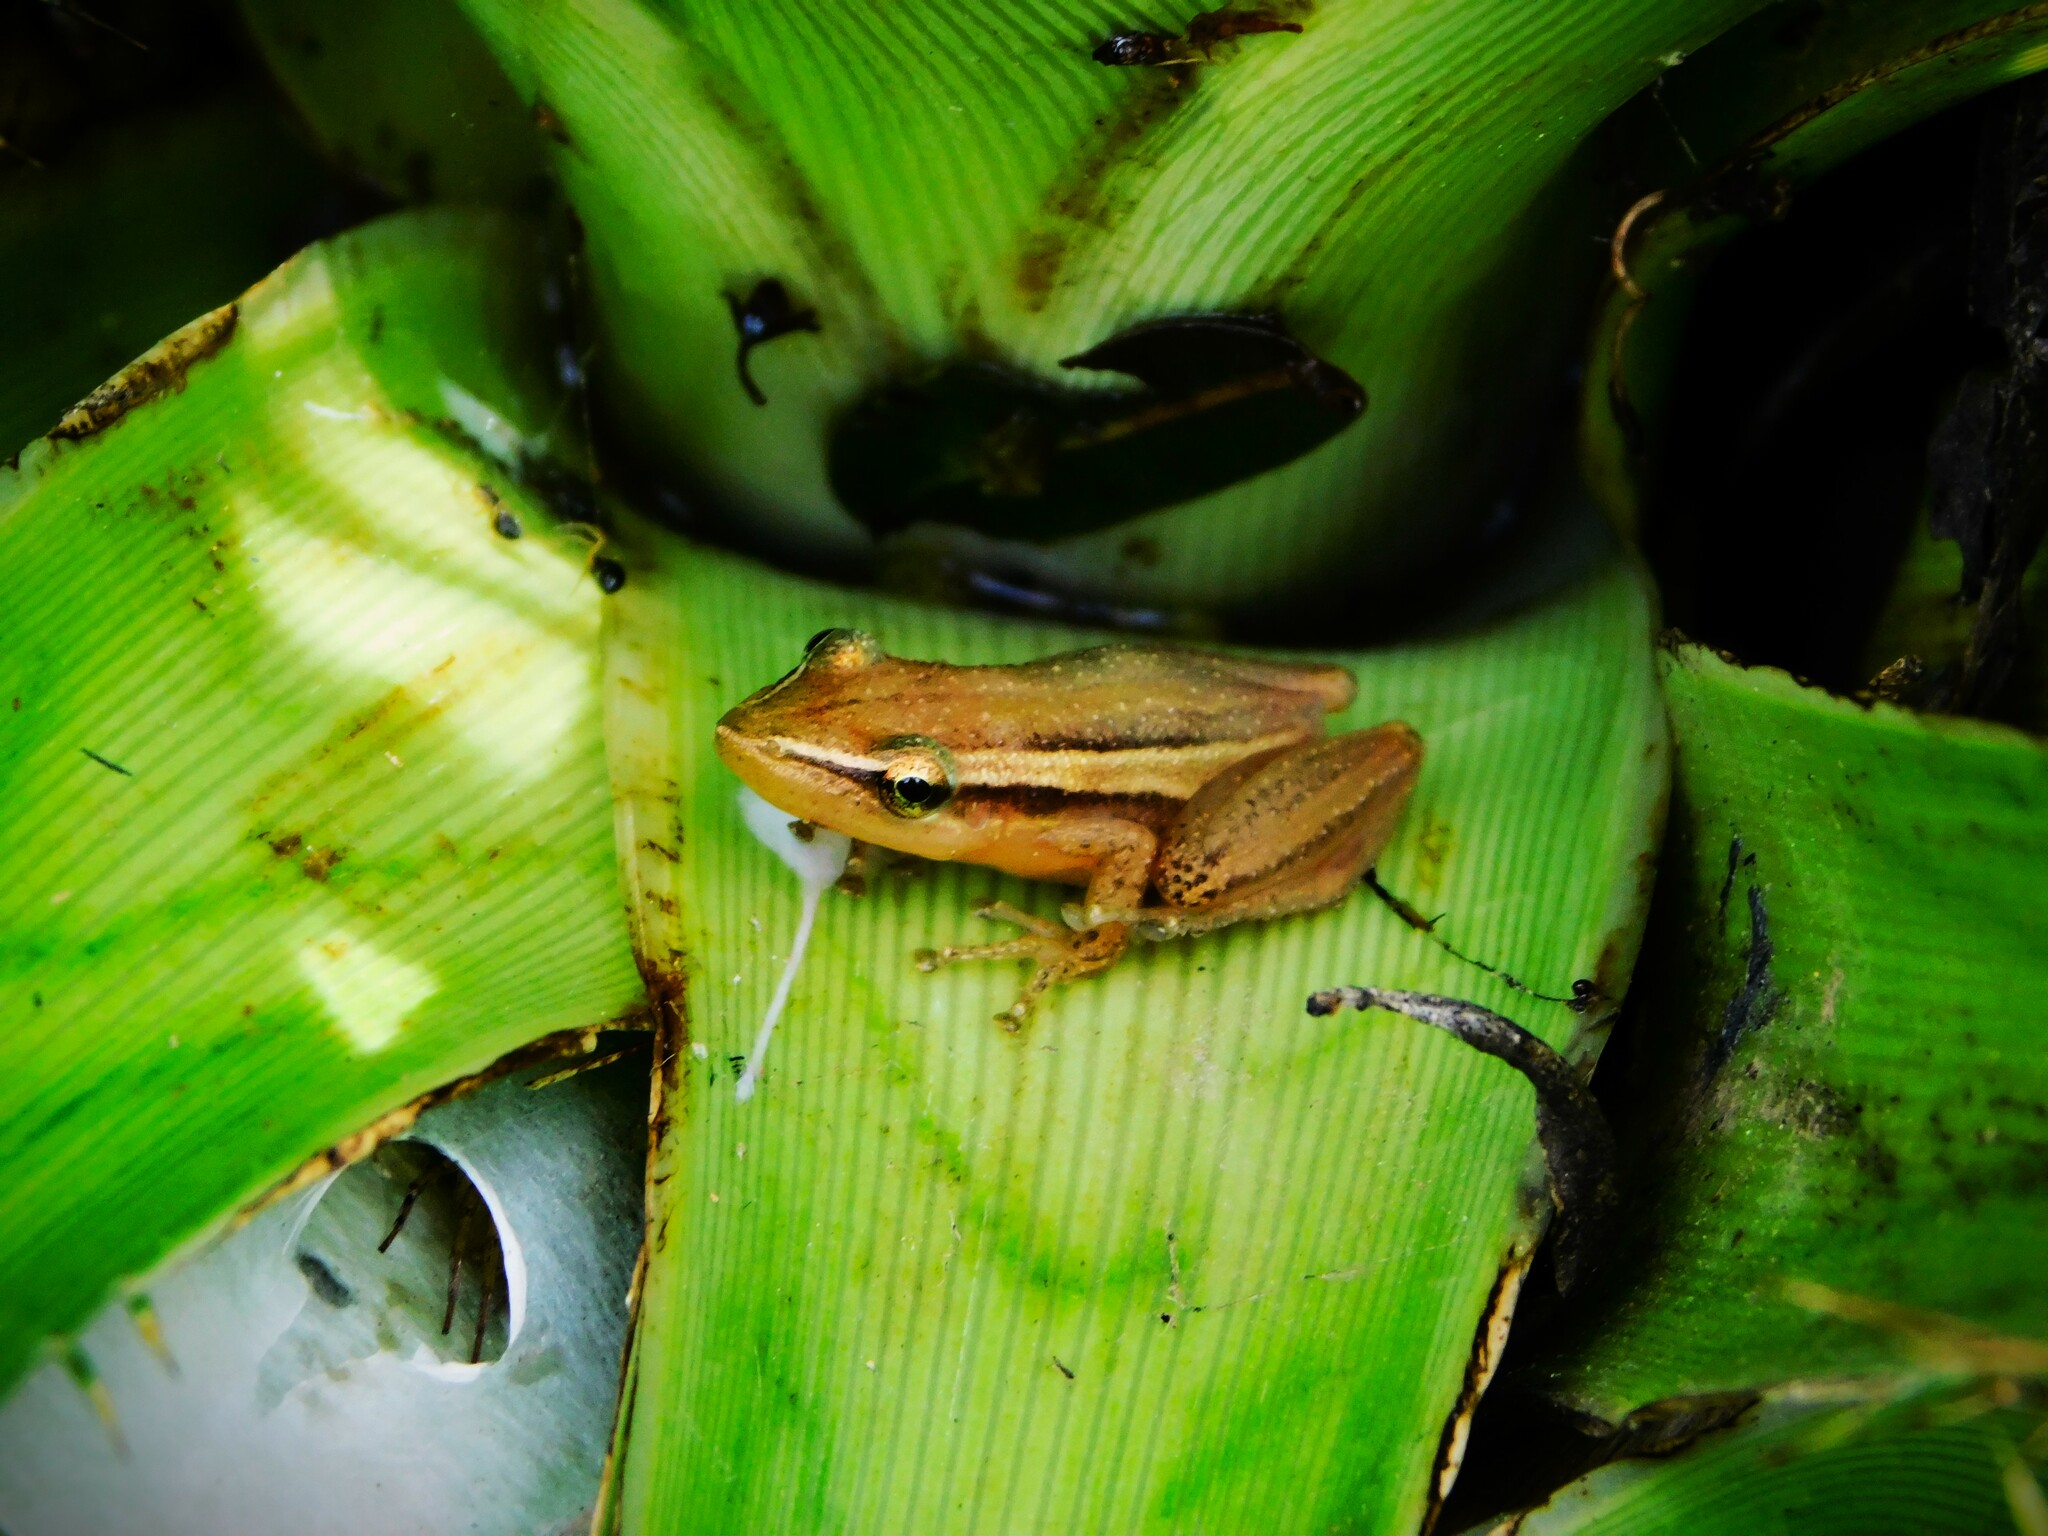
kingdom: Animalia
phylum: Chordata
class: Amphibia
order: Anura
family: Hylidae
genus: Scinax
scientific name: Scinax squalirostris
